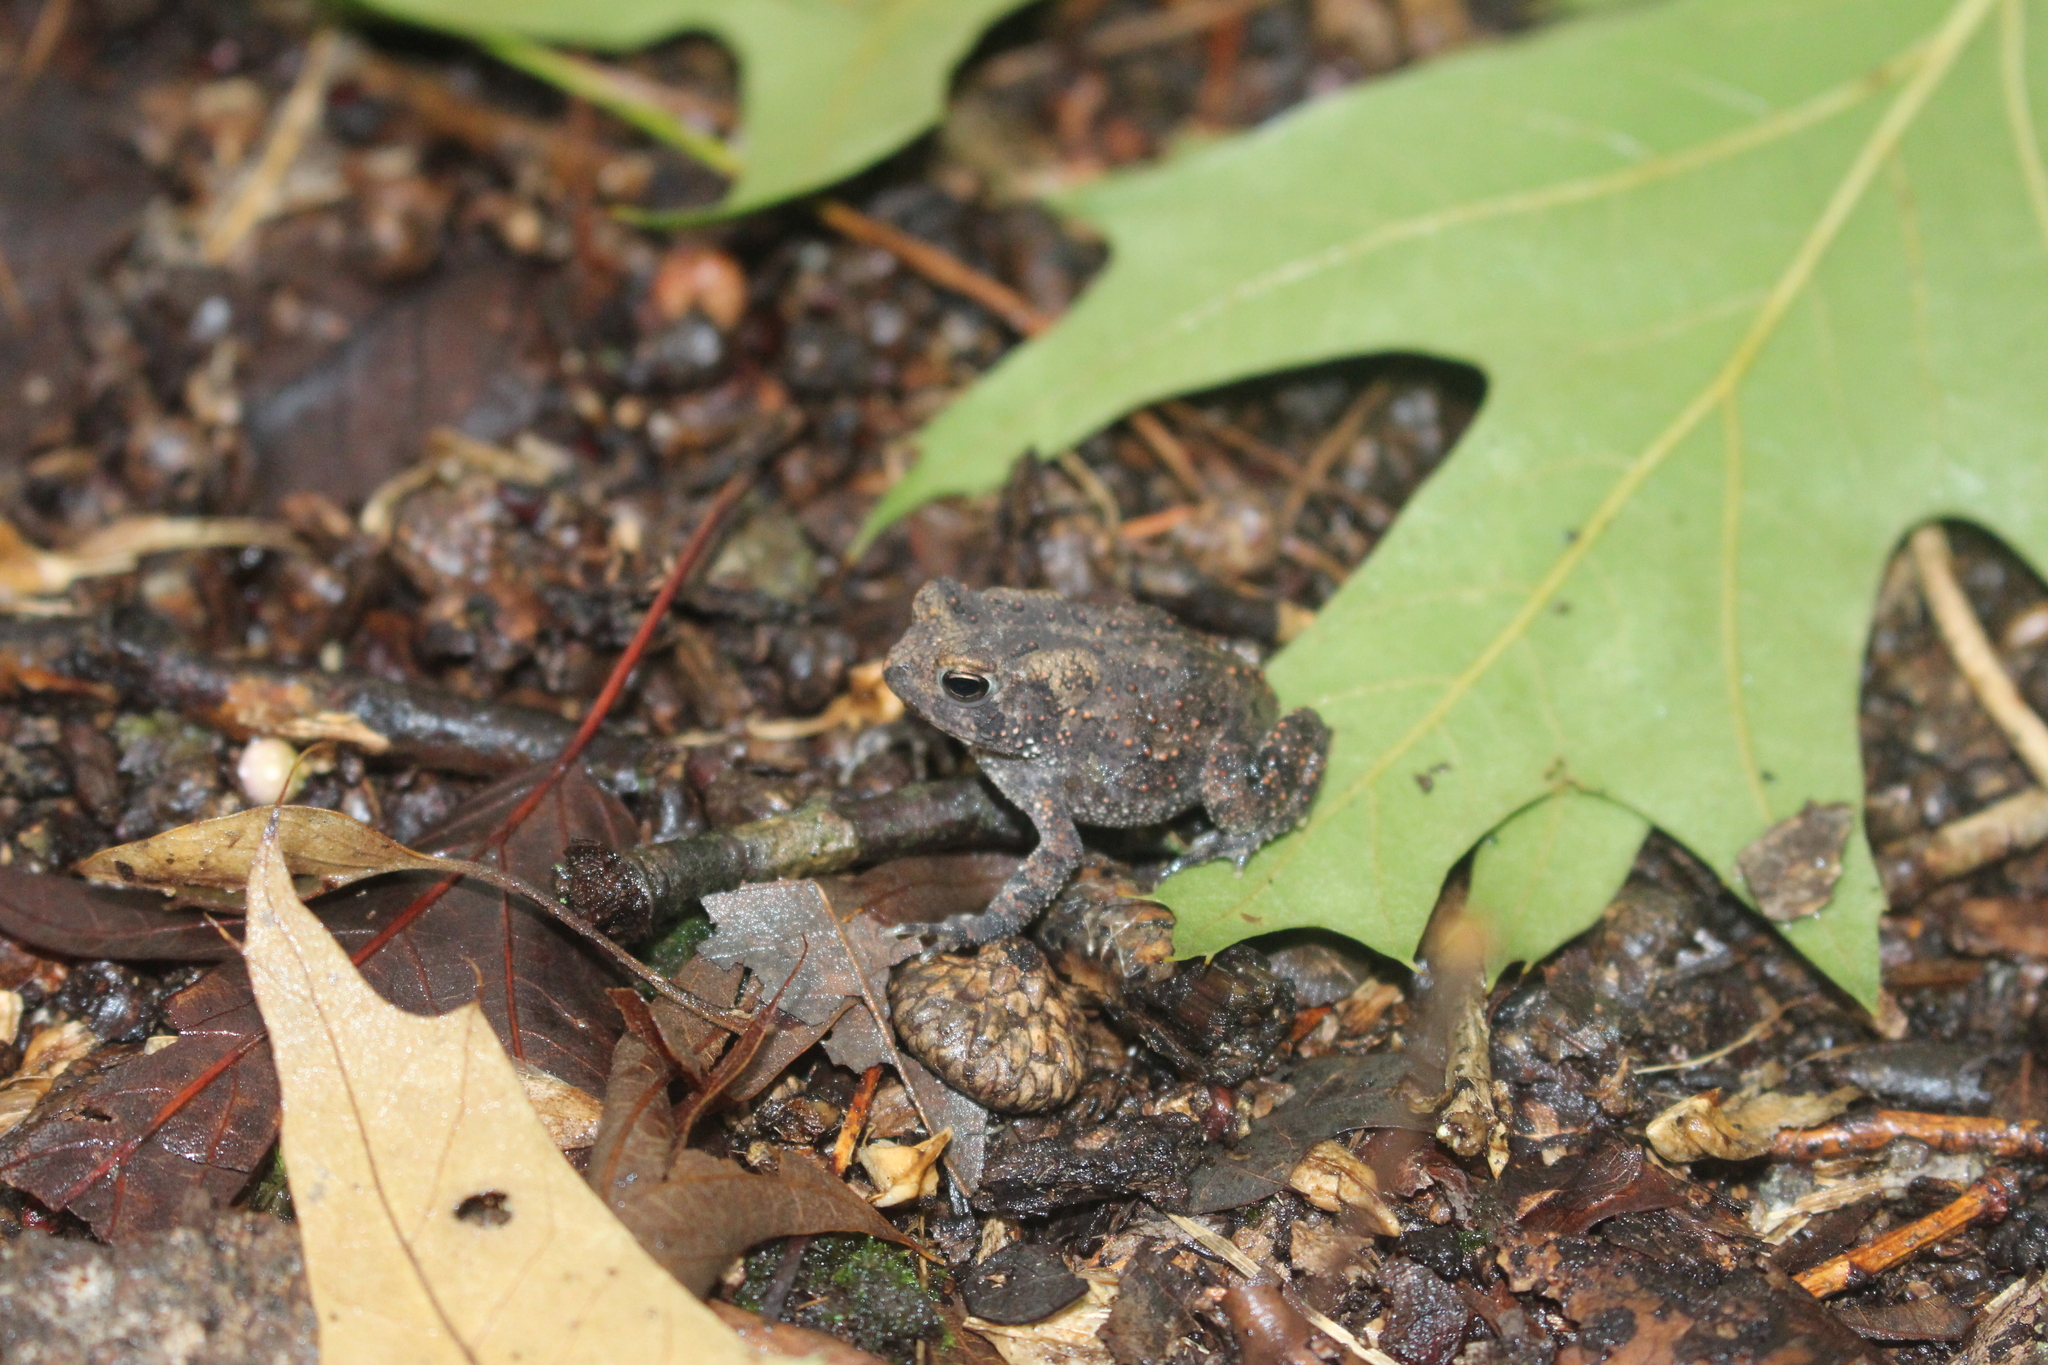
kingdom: Animalia
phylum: Chordata
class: Amphibia
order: Anura
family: Bufonidae
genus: Anaxyrus
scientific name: Anaxyrus americanus
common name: American toad
